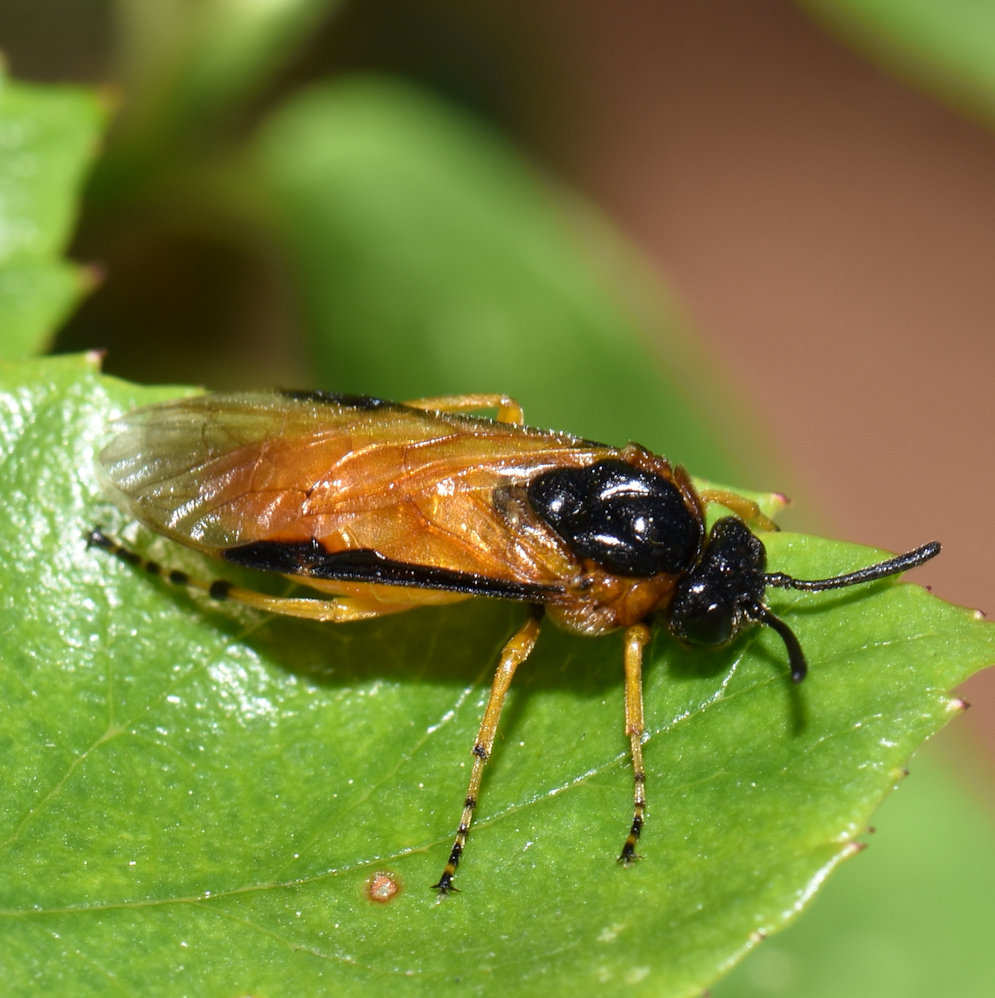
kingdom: Animalia
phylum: Arthropoda
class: Insecta
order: Hymenoptera
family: Argidae
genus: Arge
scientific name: Arge ochropus
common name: Argid sawfly
